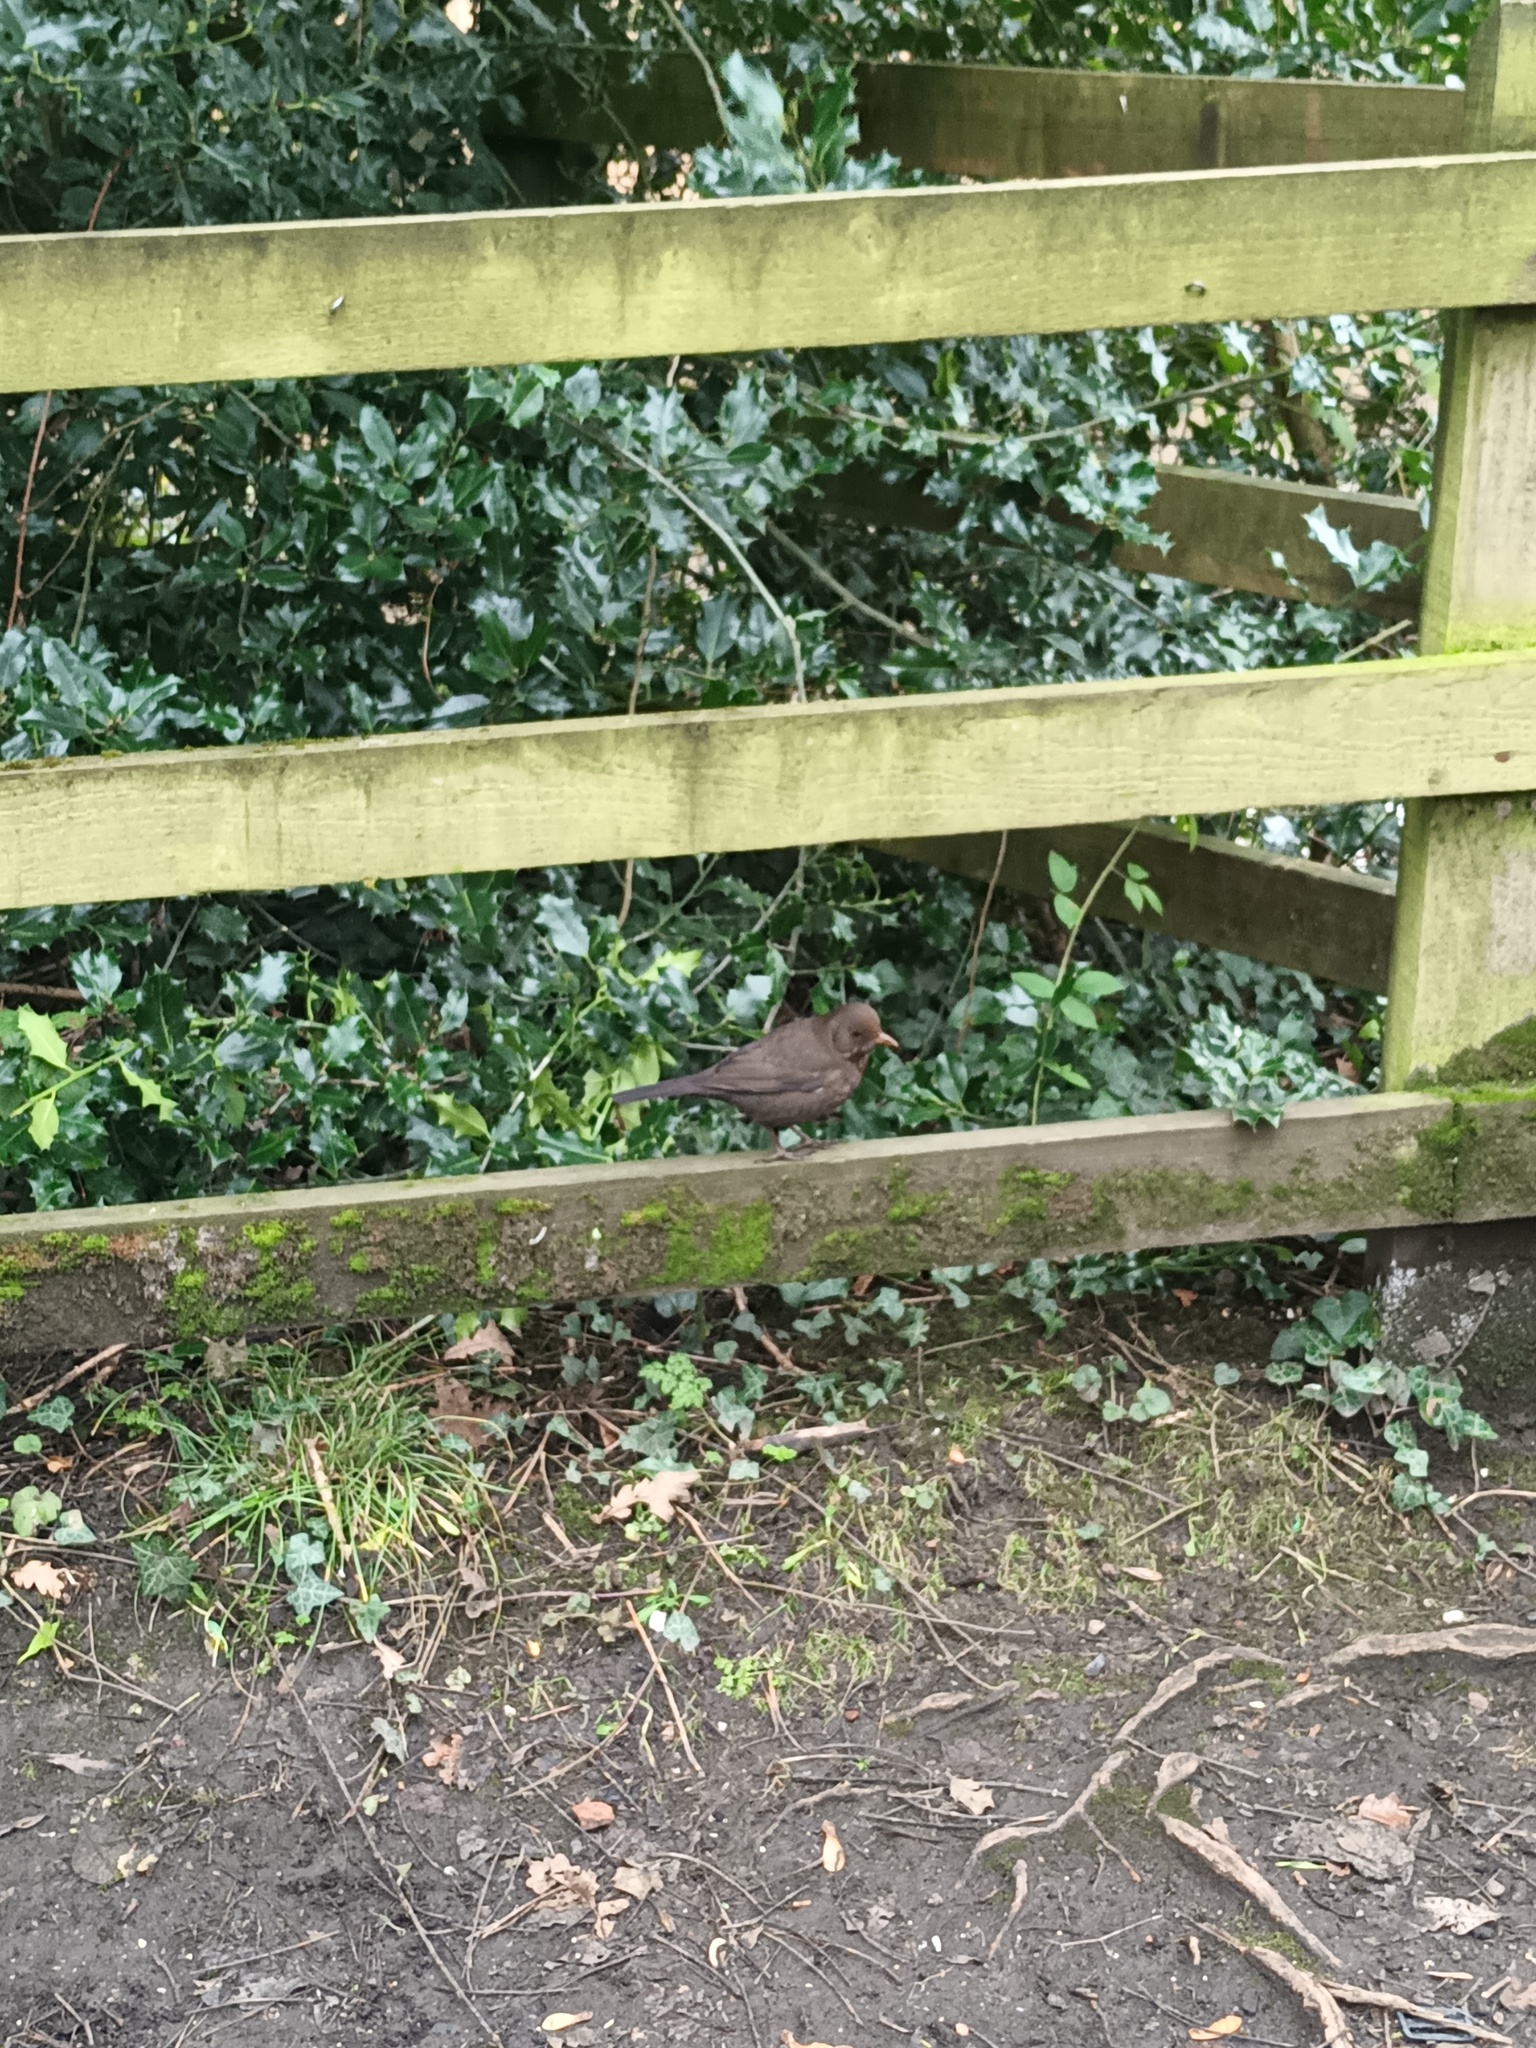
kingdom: Animalia
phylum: Chordata
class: Aves
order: Passeriformes
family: Turdidae
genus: Turdus
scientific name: Turdus merula
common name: Common blackbird
